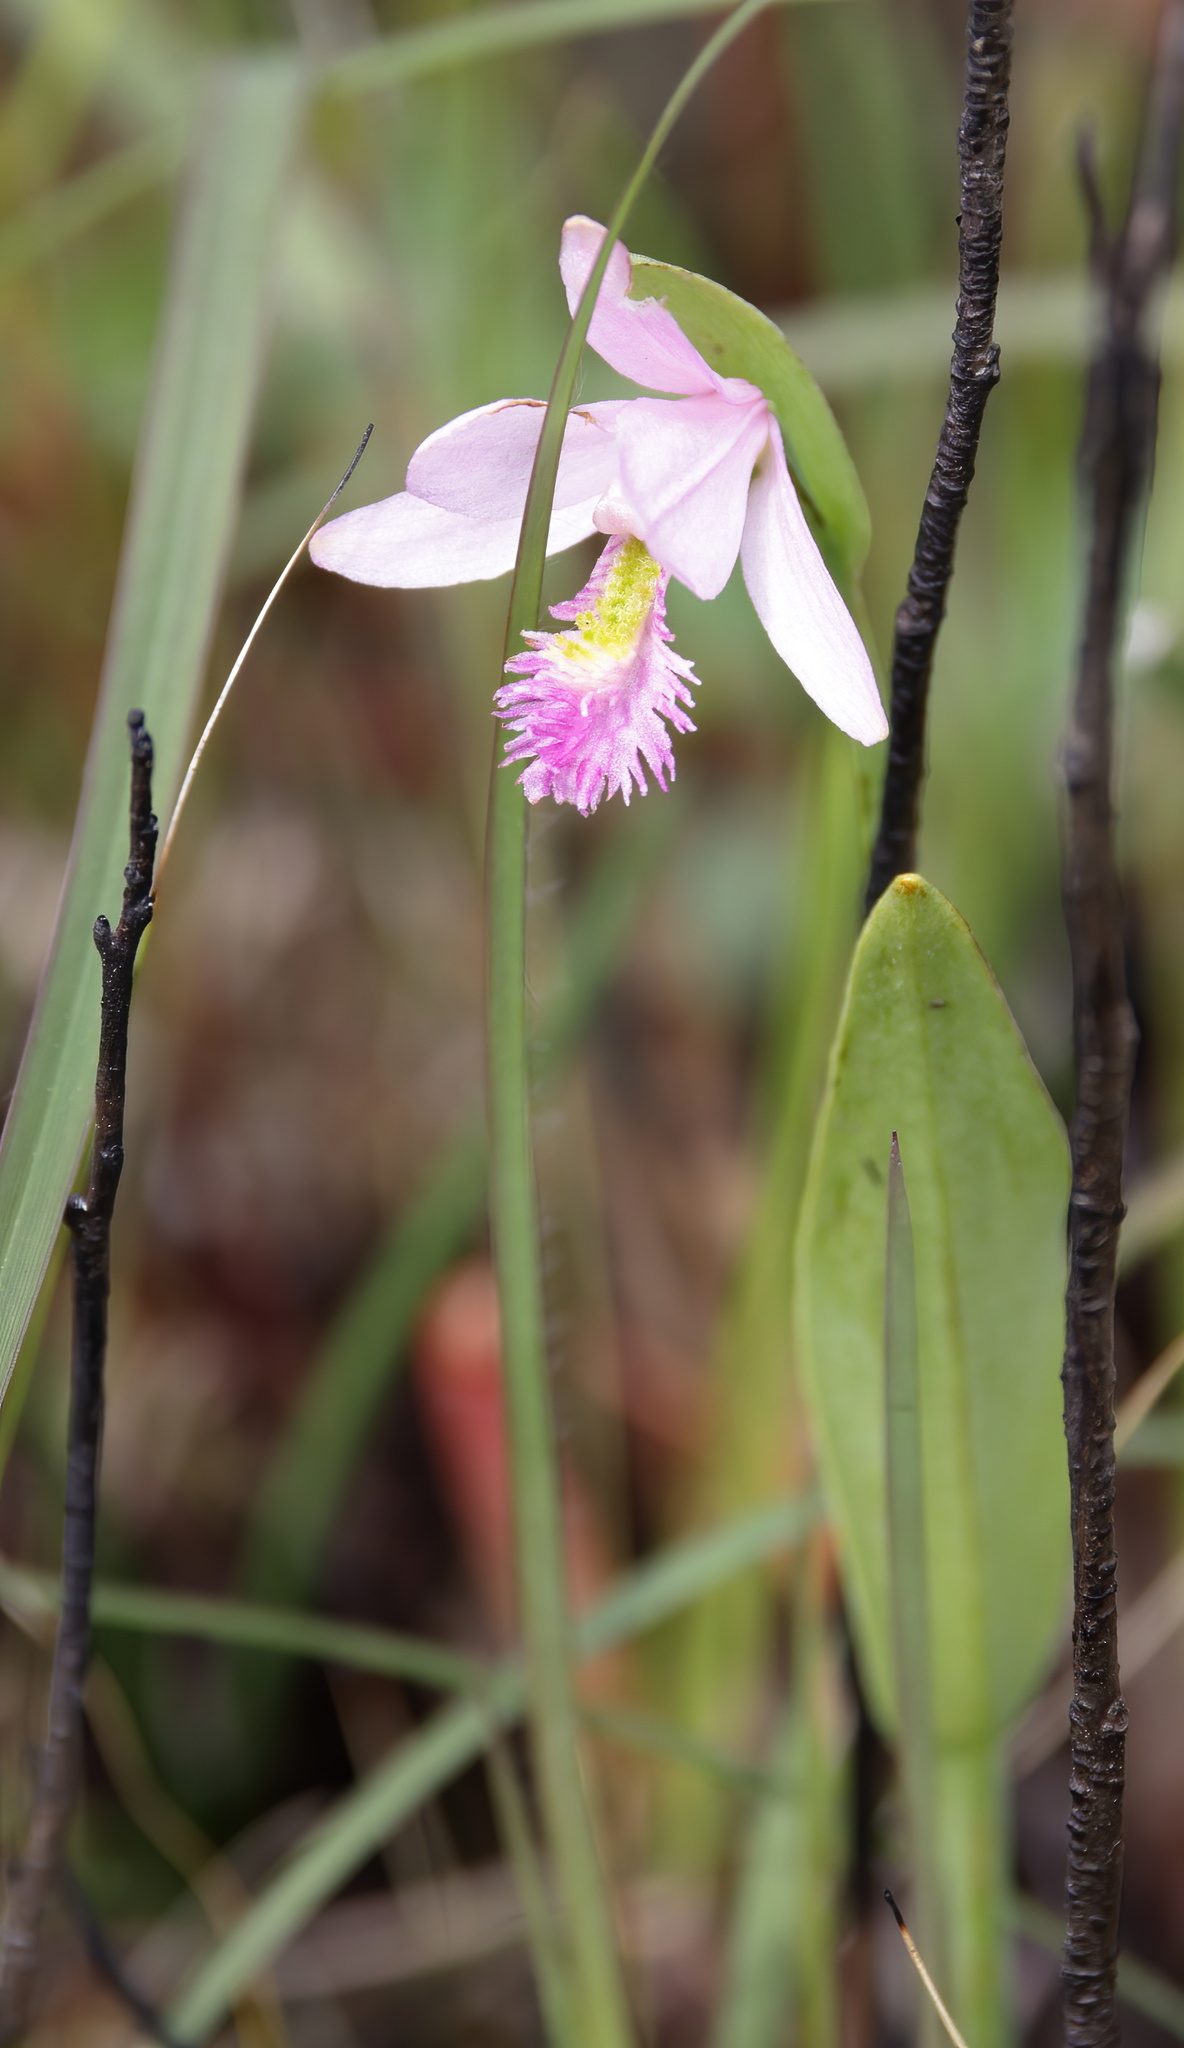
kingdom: Plantae
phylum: Tracheophyta
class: Liliopsida
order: Asparagales
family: Orchidaceae
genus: Pogonia
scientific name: Pogonia ophioglossoides
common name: Rose pogonia
